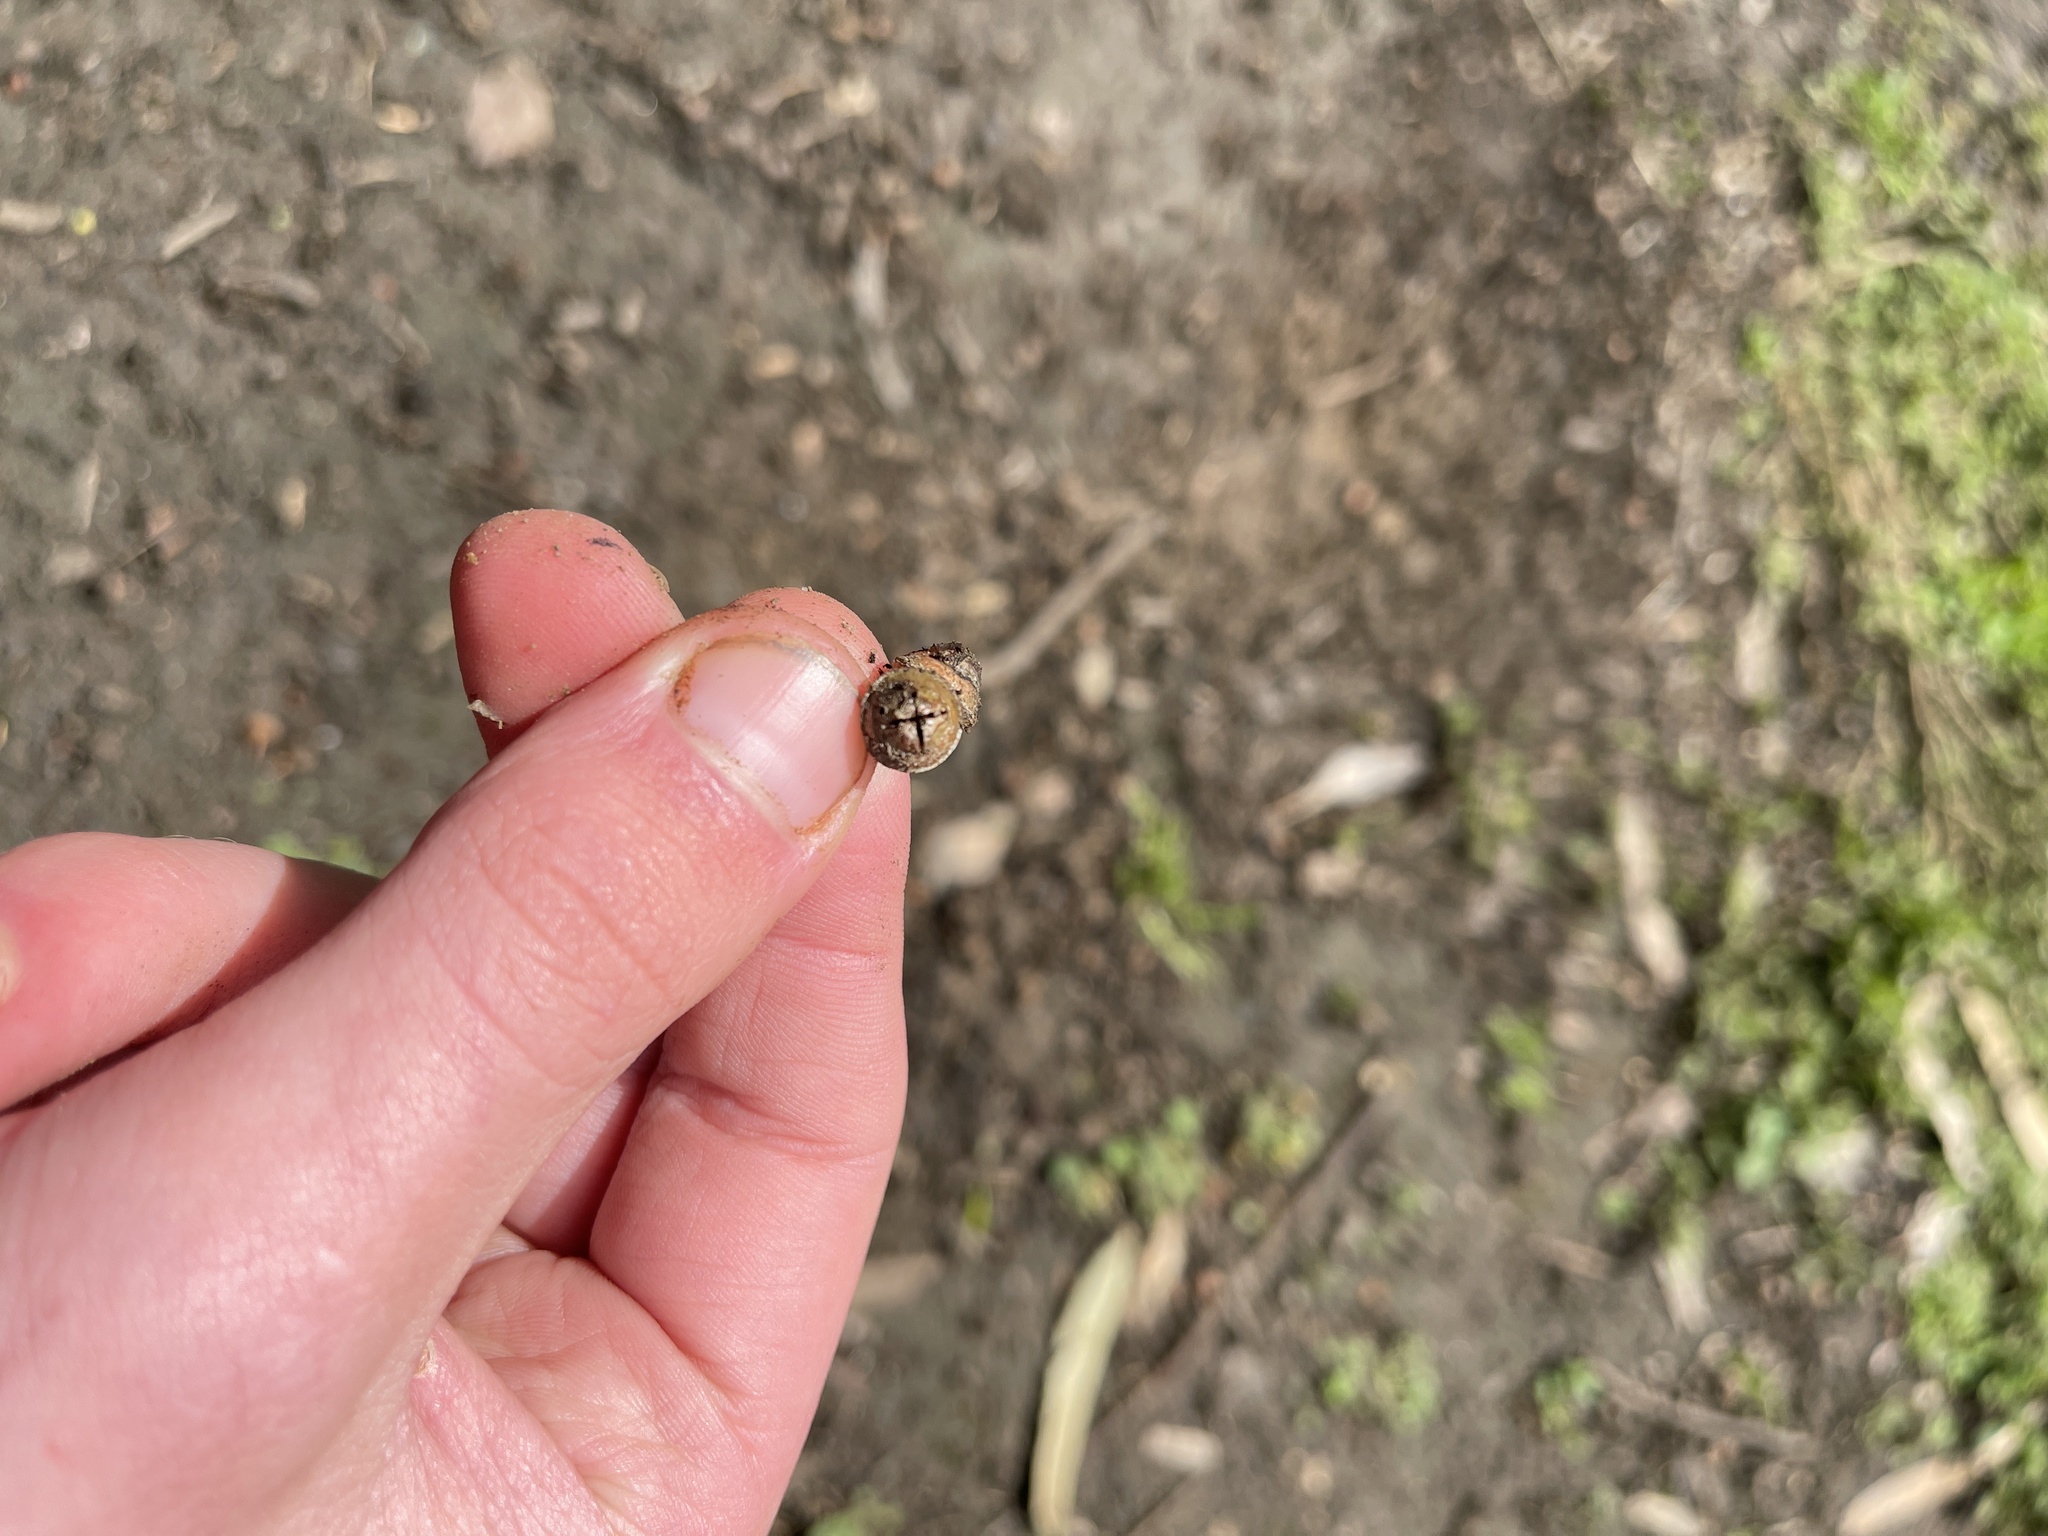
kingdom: Plantae
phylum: Tracheophyta
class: Magnoliopsida
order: Myrtales
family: Myrtaceae
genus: Eucalyptus
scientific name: Eucalyptus camaldulensis
